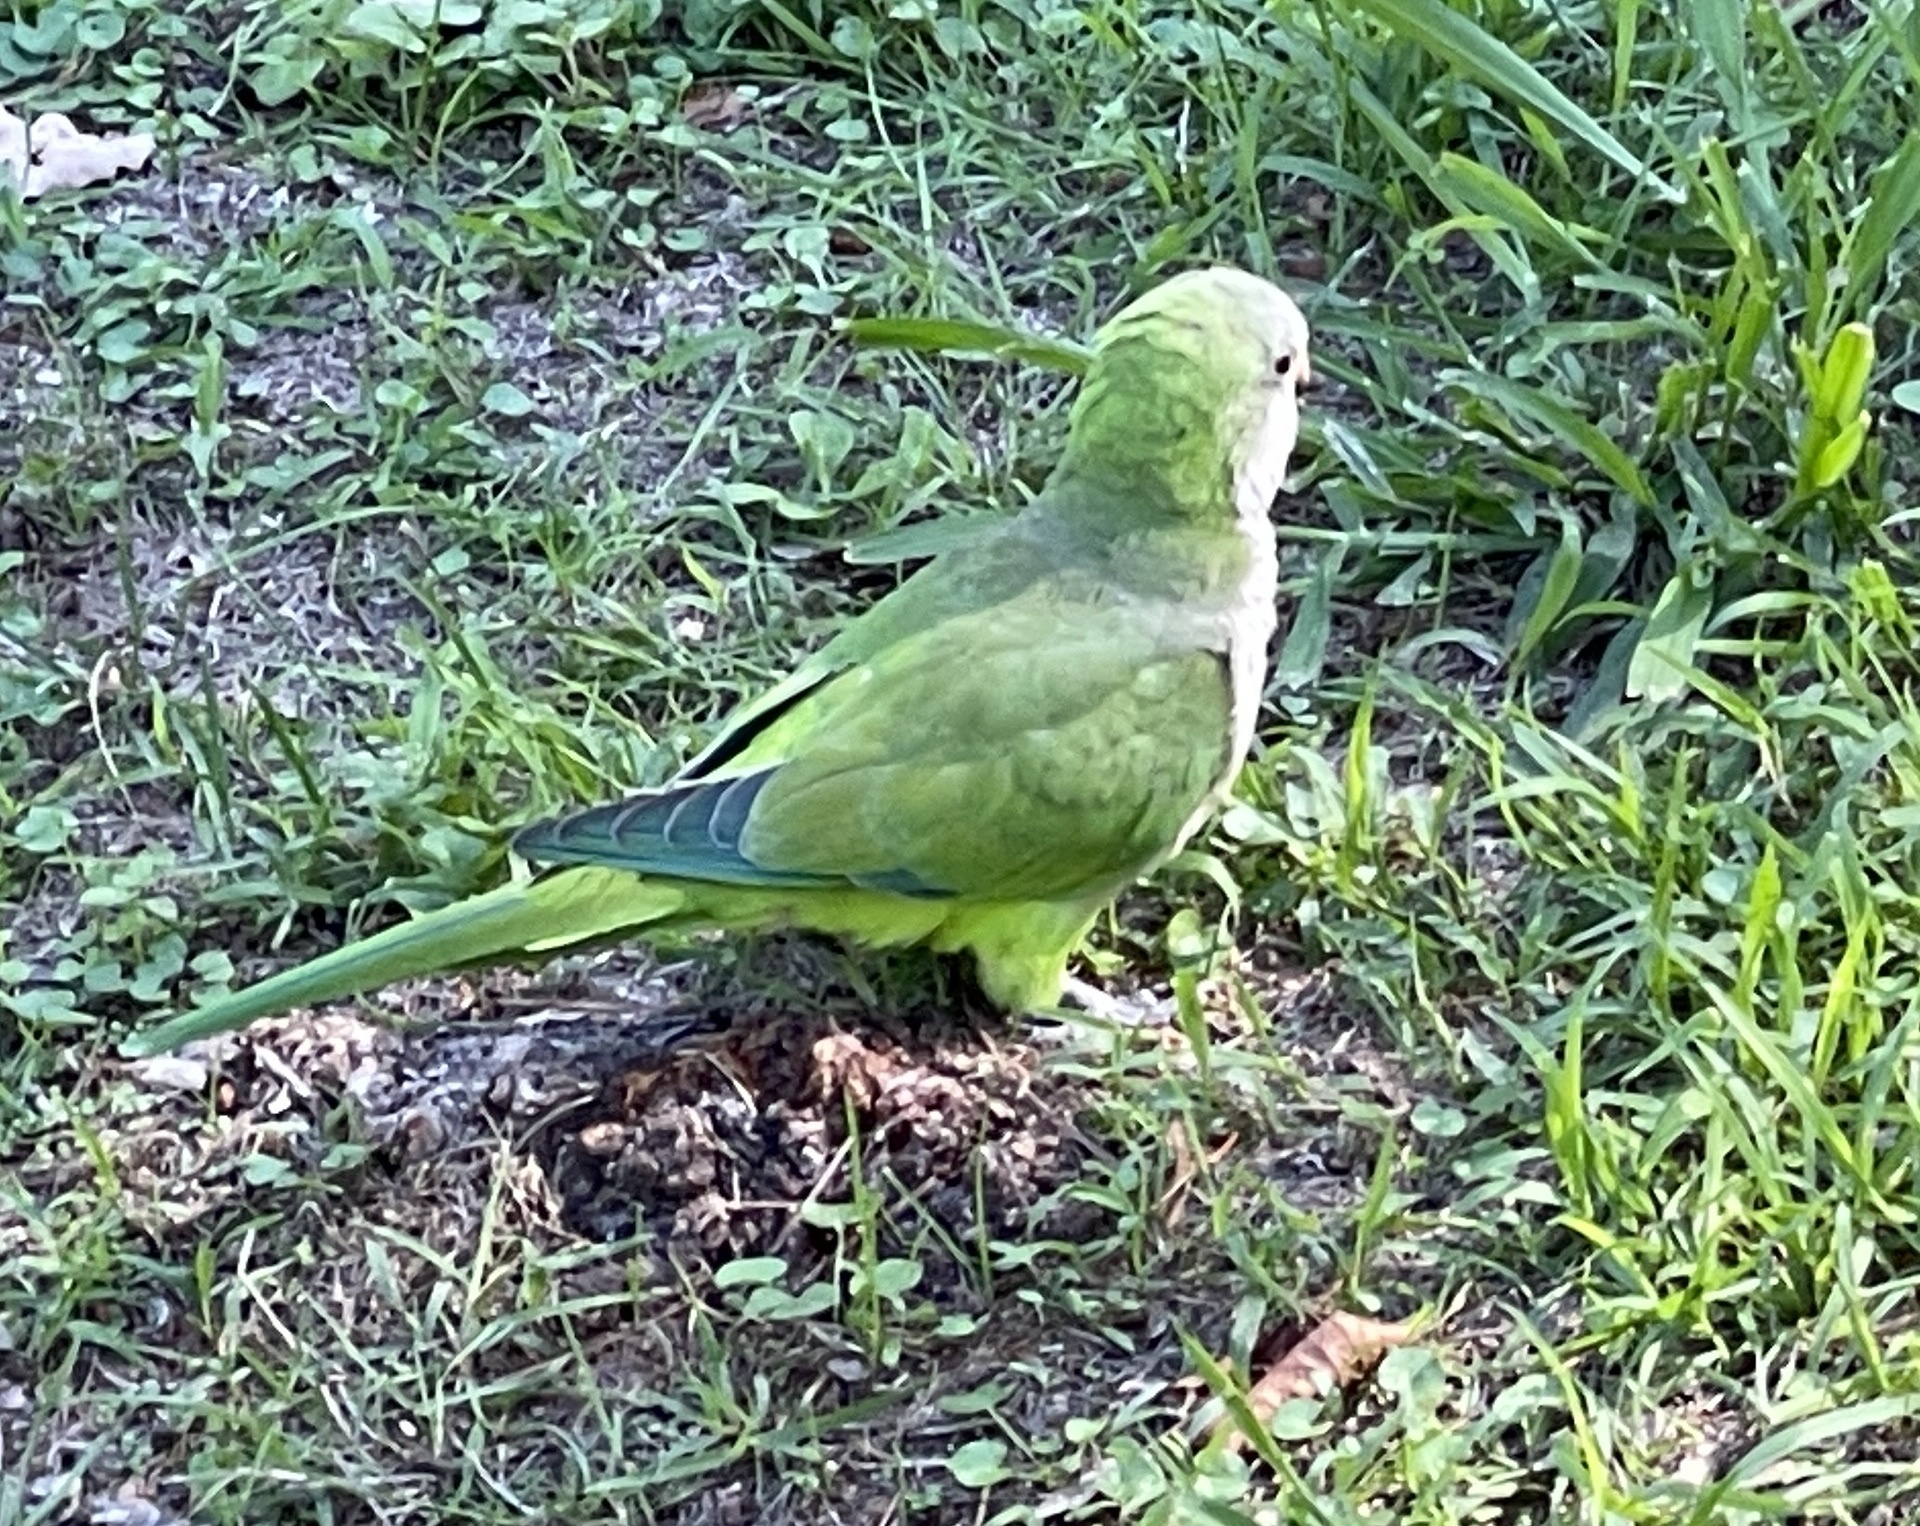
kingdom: Animalia
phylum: Chordata
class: Aves
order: Psittaciformes
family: Psittacidae
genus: Myiopsitta
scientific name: Myiopsitta monachus
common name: Monk parakeet
